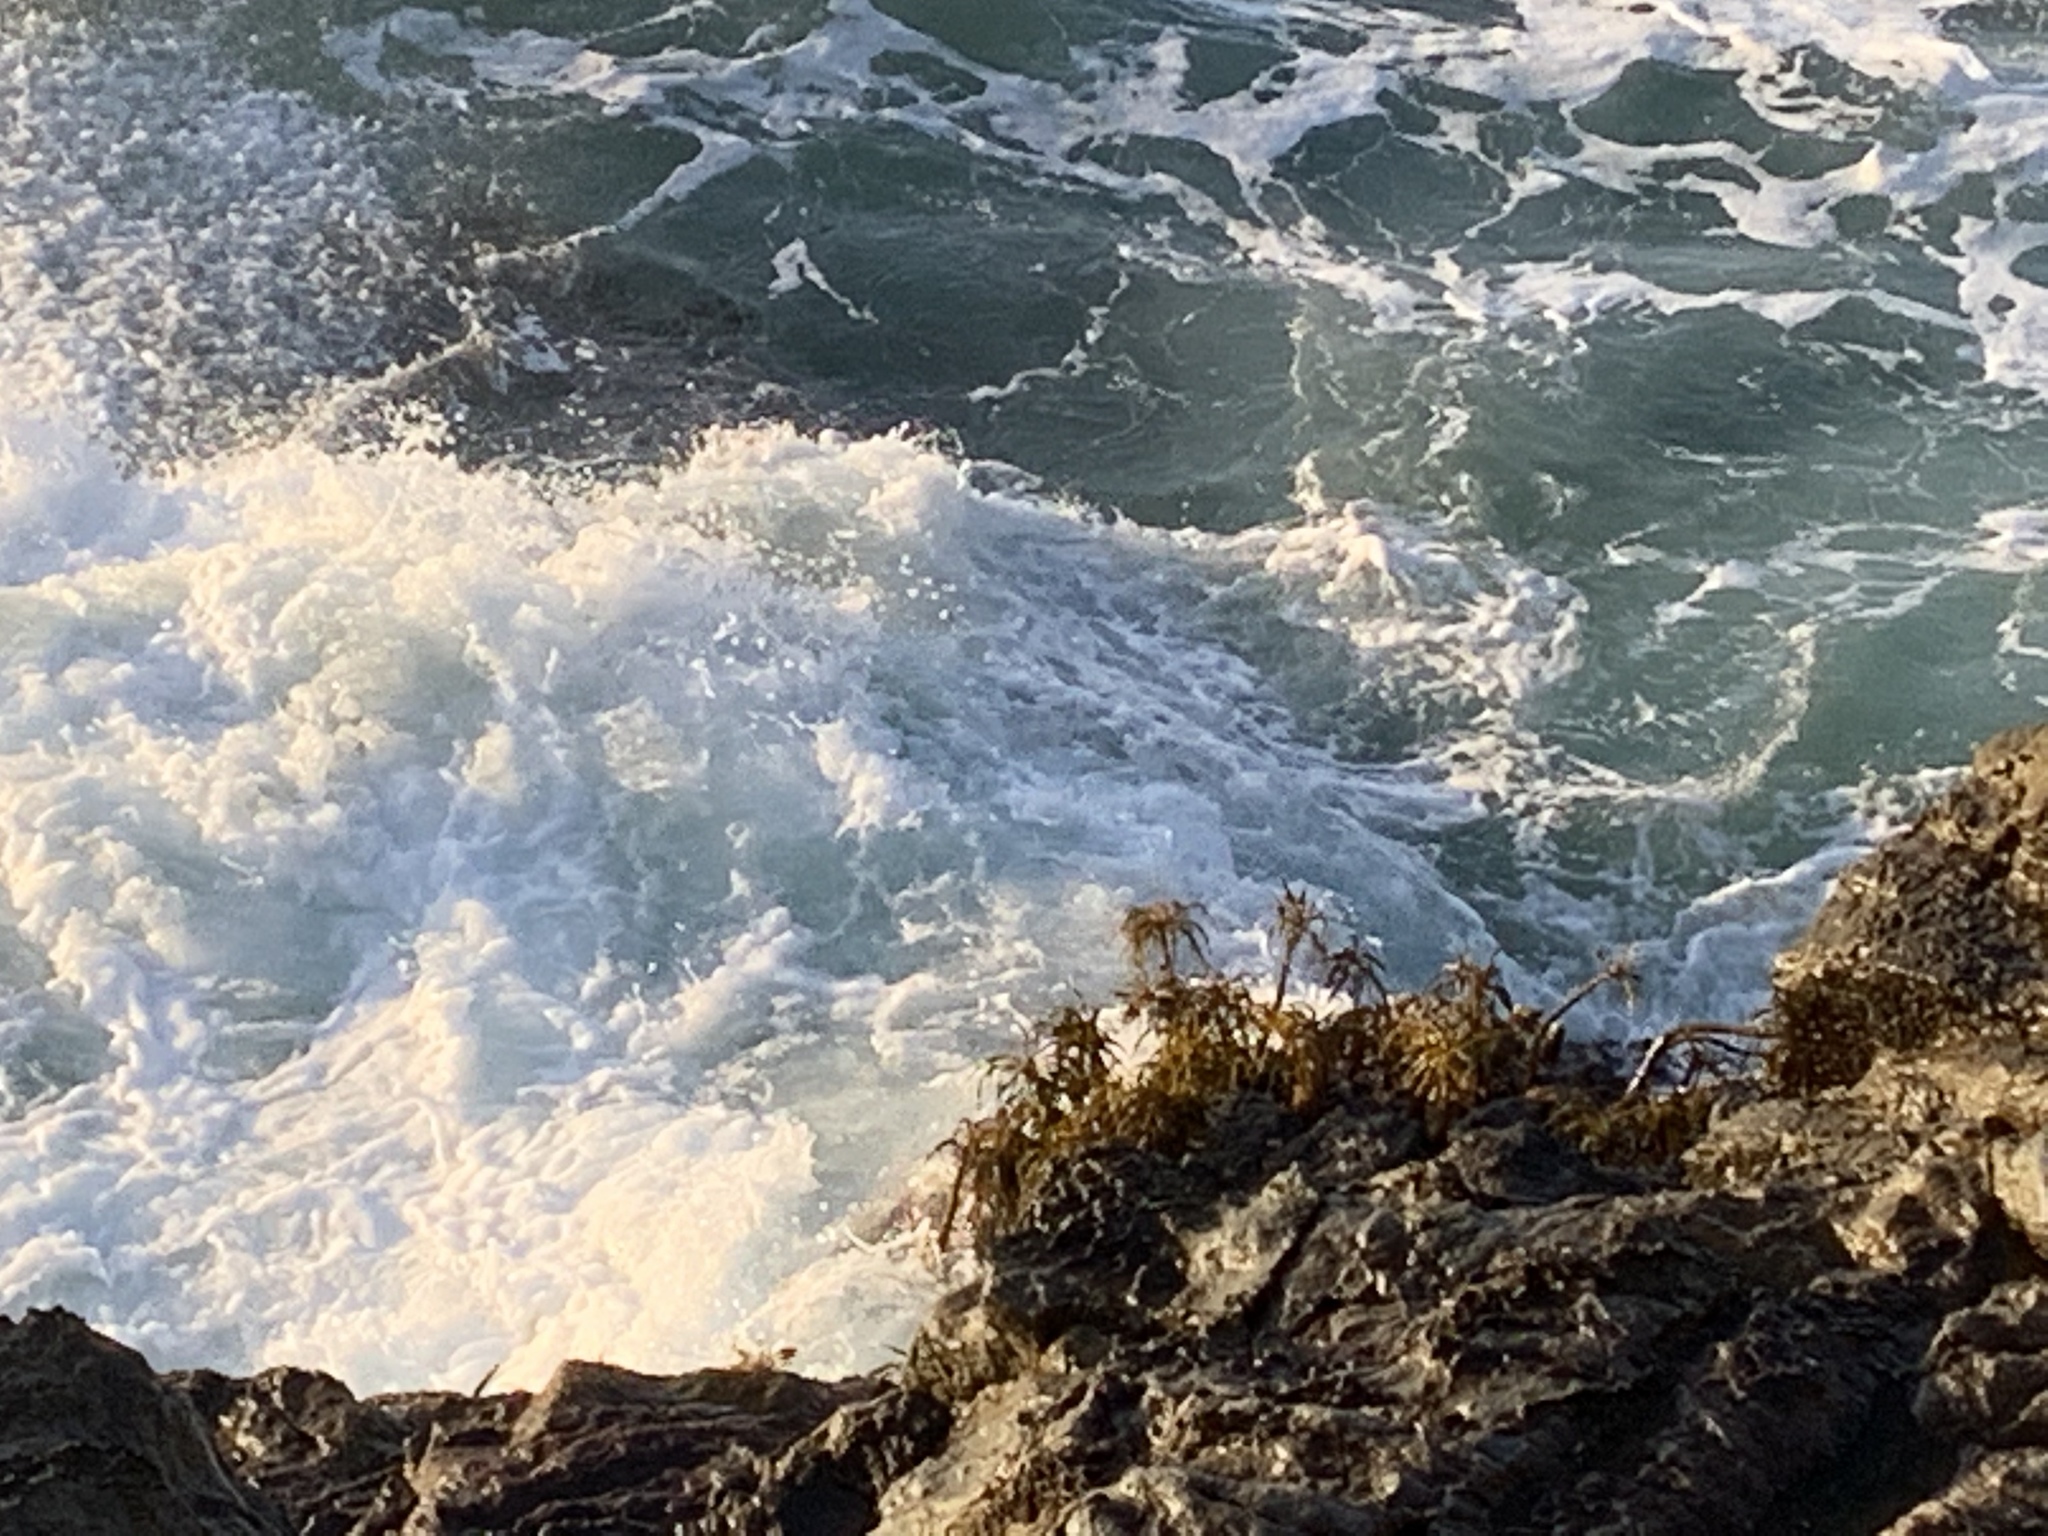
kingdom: Chromista
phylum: Ochrophyta
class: Phaeophyceae
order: Laminariales
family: Laminariaceae
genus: Postelsia
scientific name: Postelsia palmiformis
